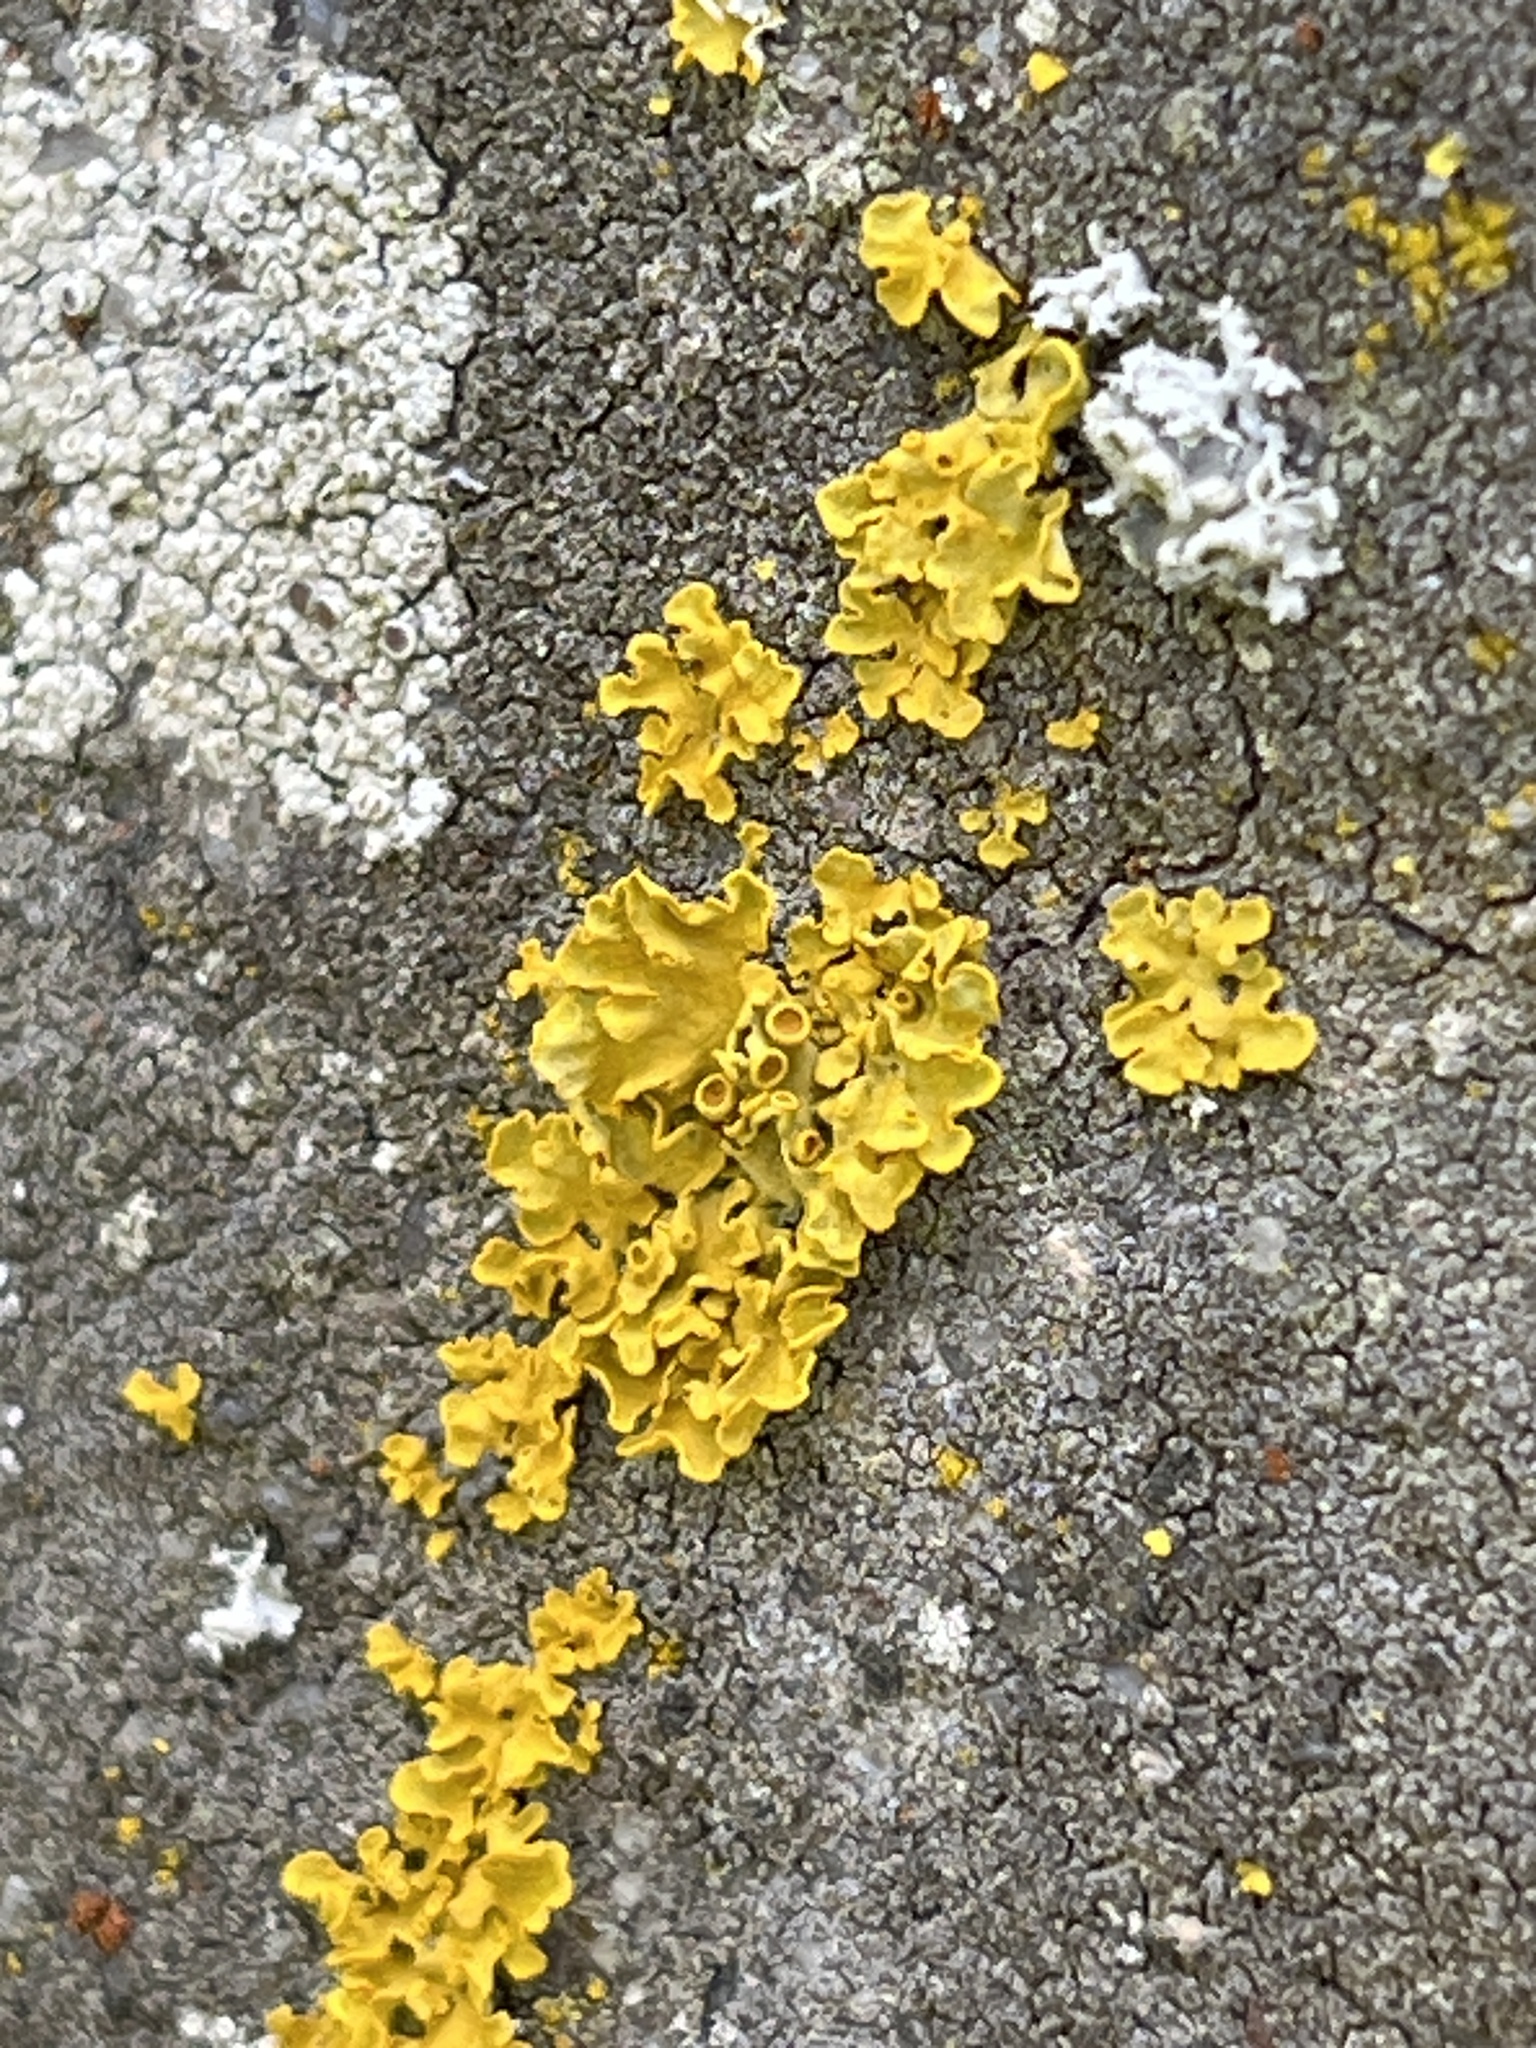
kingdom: Fungi
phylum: Ascomycota
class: Lecanoromycetes
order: Teloschistales
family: Teloschistaceae
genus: Xanthoria
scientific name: Xanthoria parietina
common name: Common orange lichen
